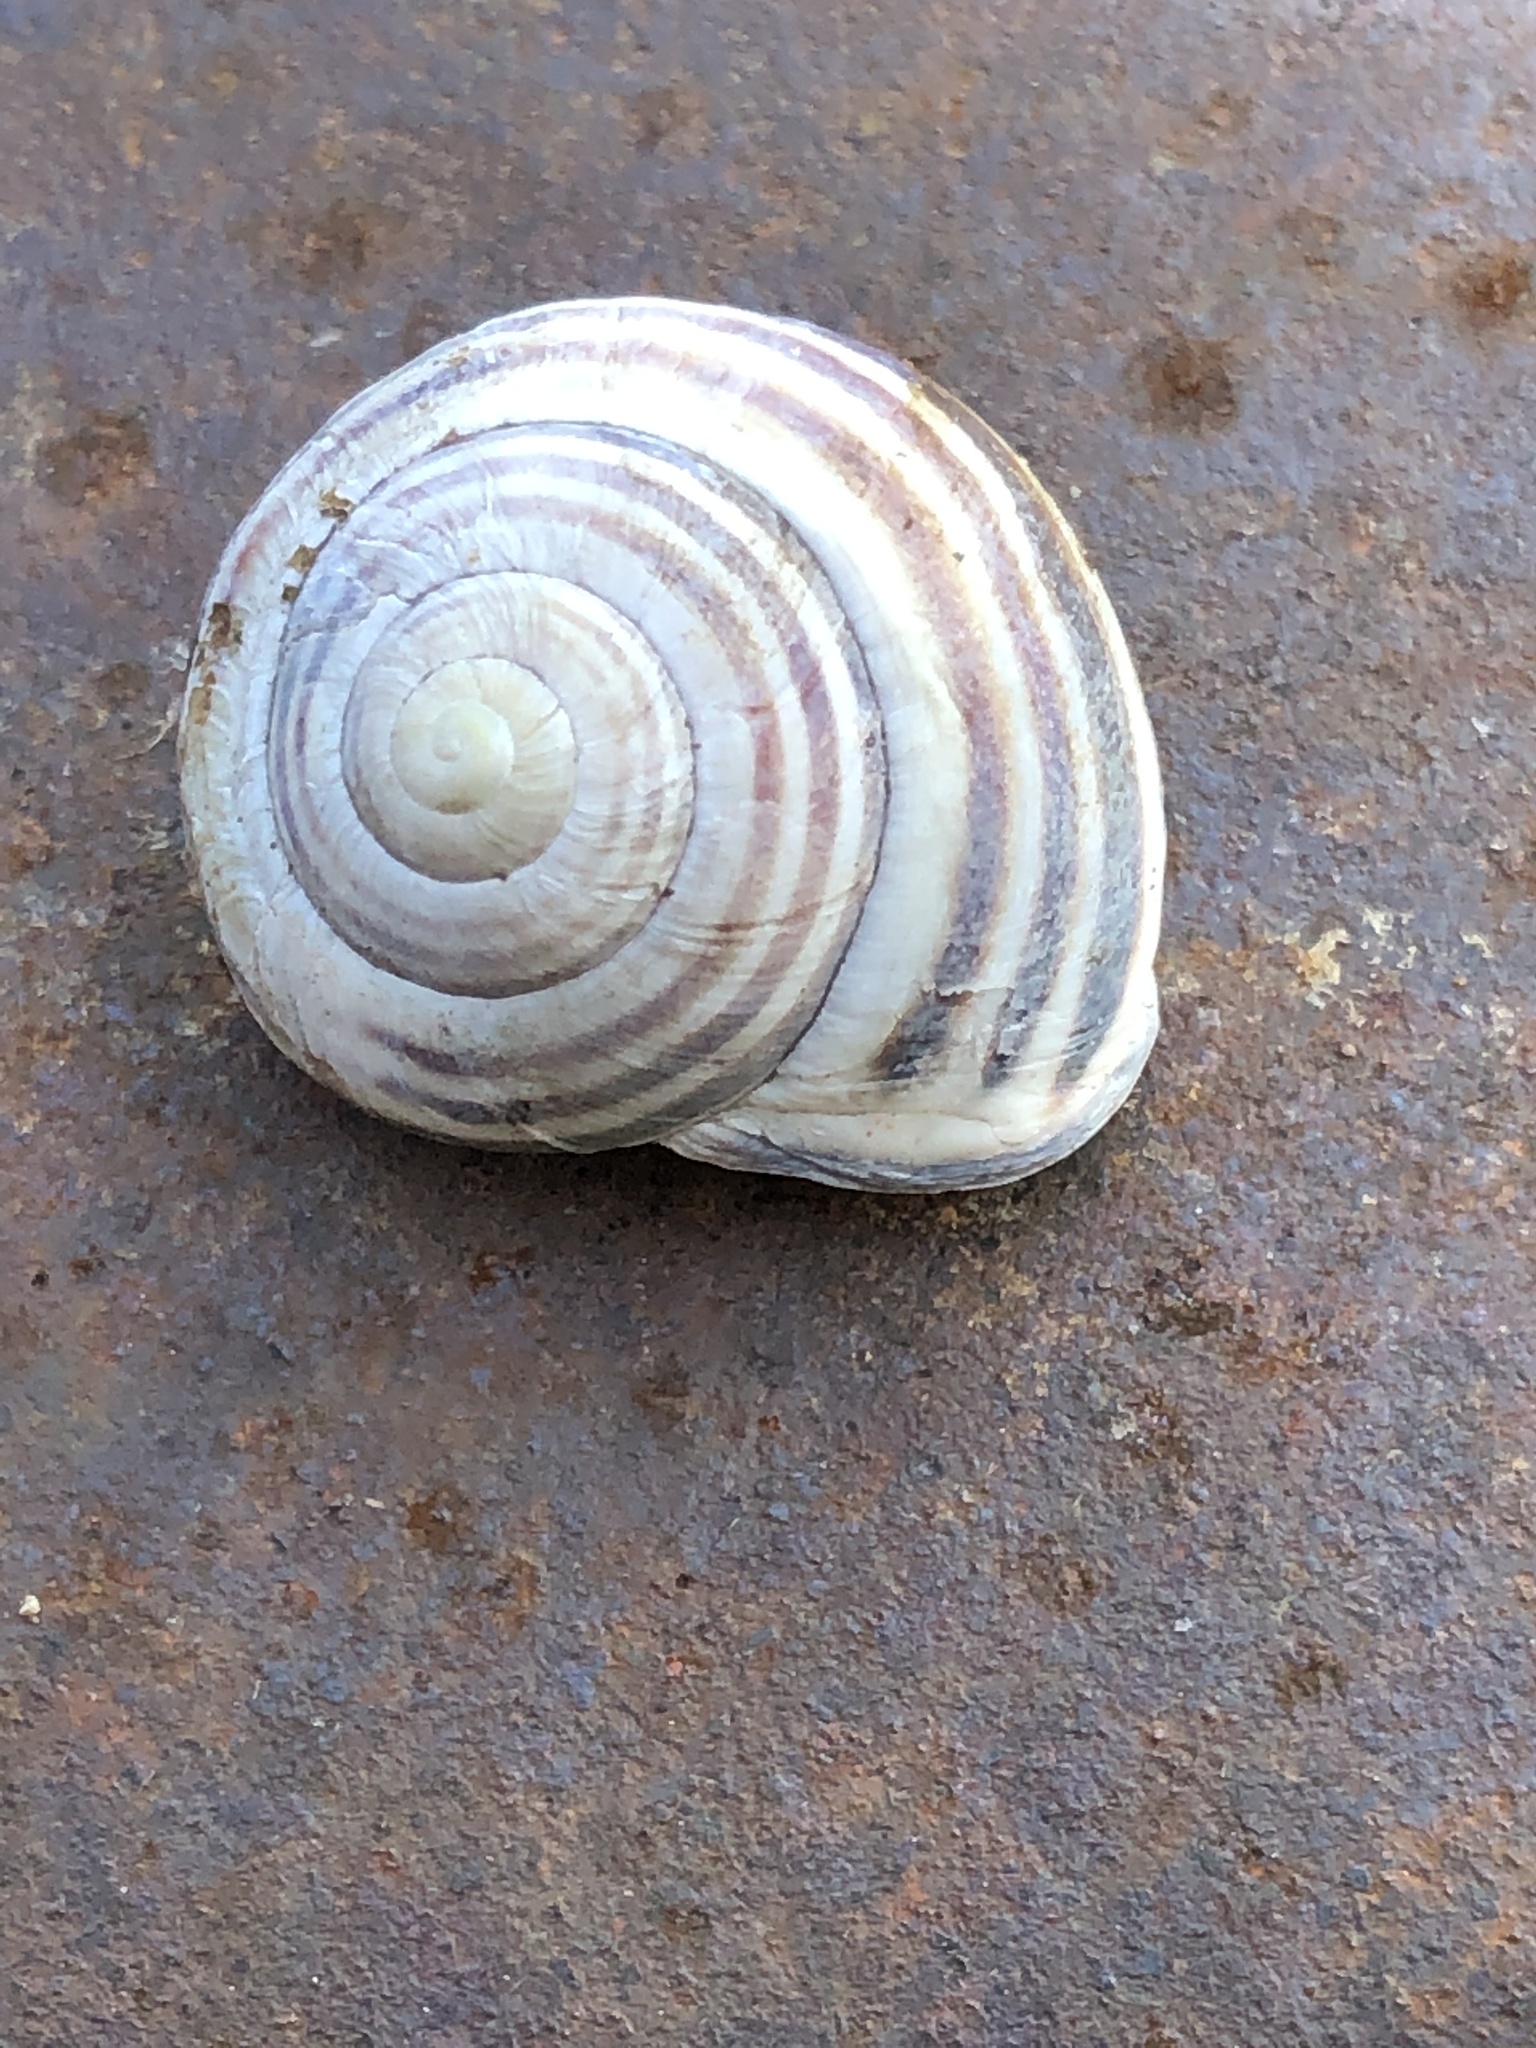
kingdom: Animalia
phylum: Mollusca
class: Gastropoda
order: Stylommatophora
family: Helicidae
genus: Cepaea
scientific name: Cepaea nemoralis
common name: Grovesnail
